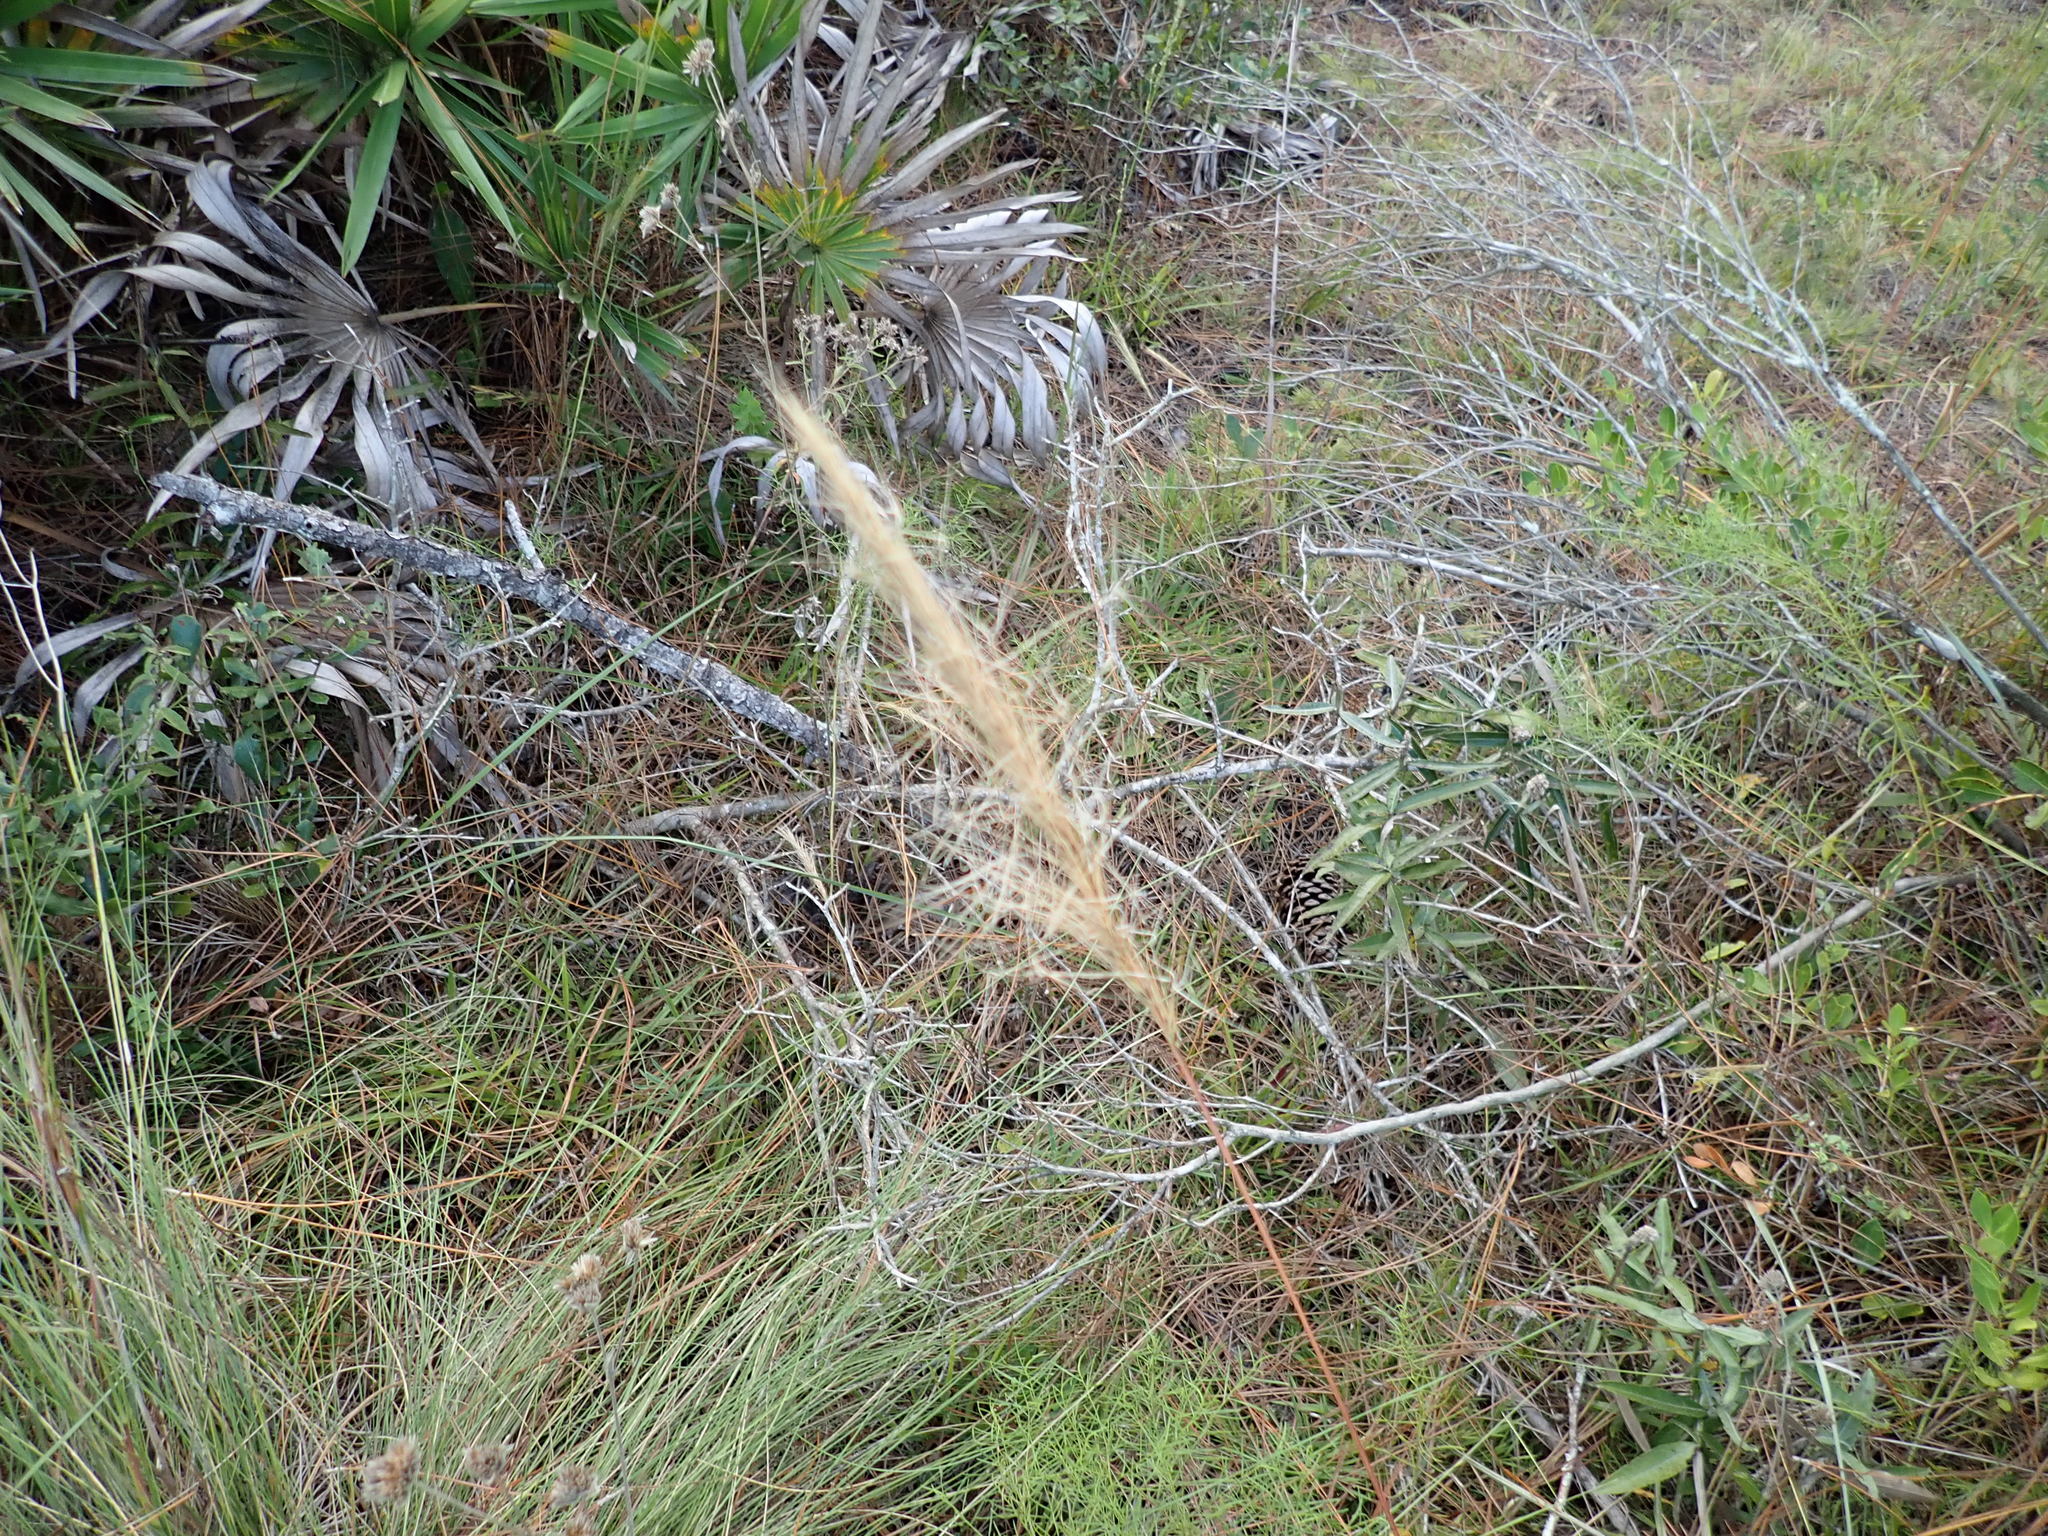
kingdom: Plantae
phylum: Tracheophyta
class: Liliopsida
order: Poales
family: Poaceae
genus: Aristida
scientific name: Aristida spiciformis
